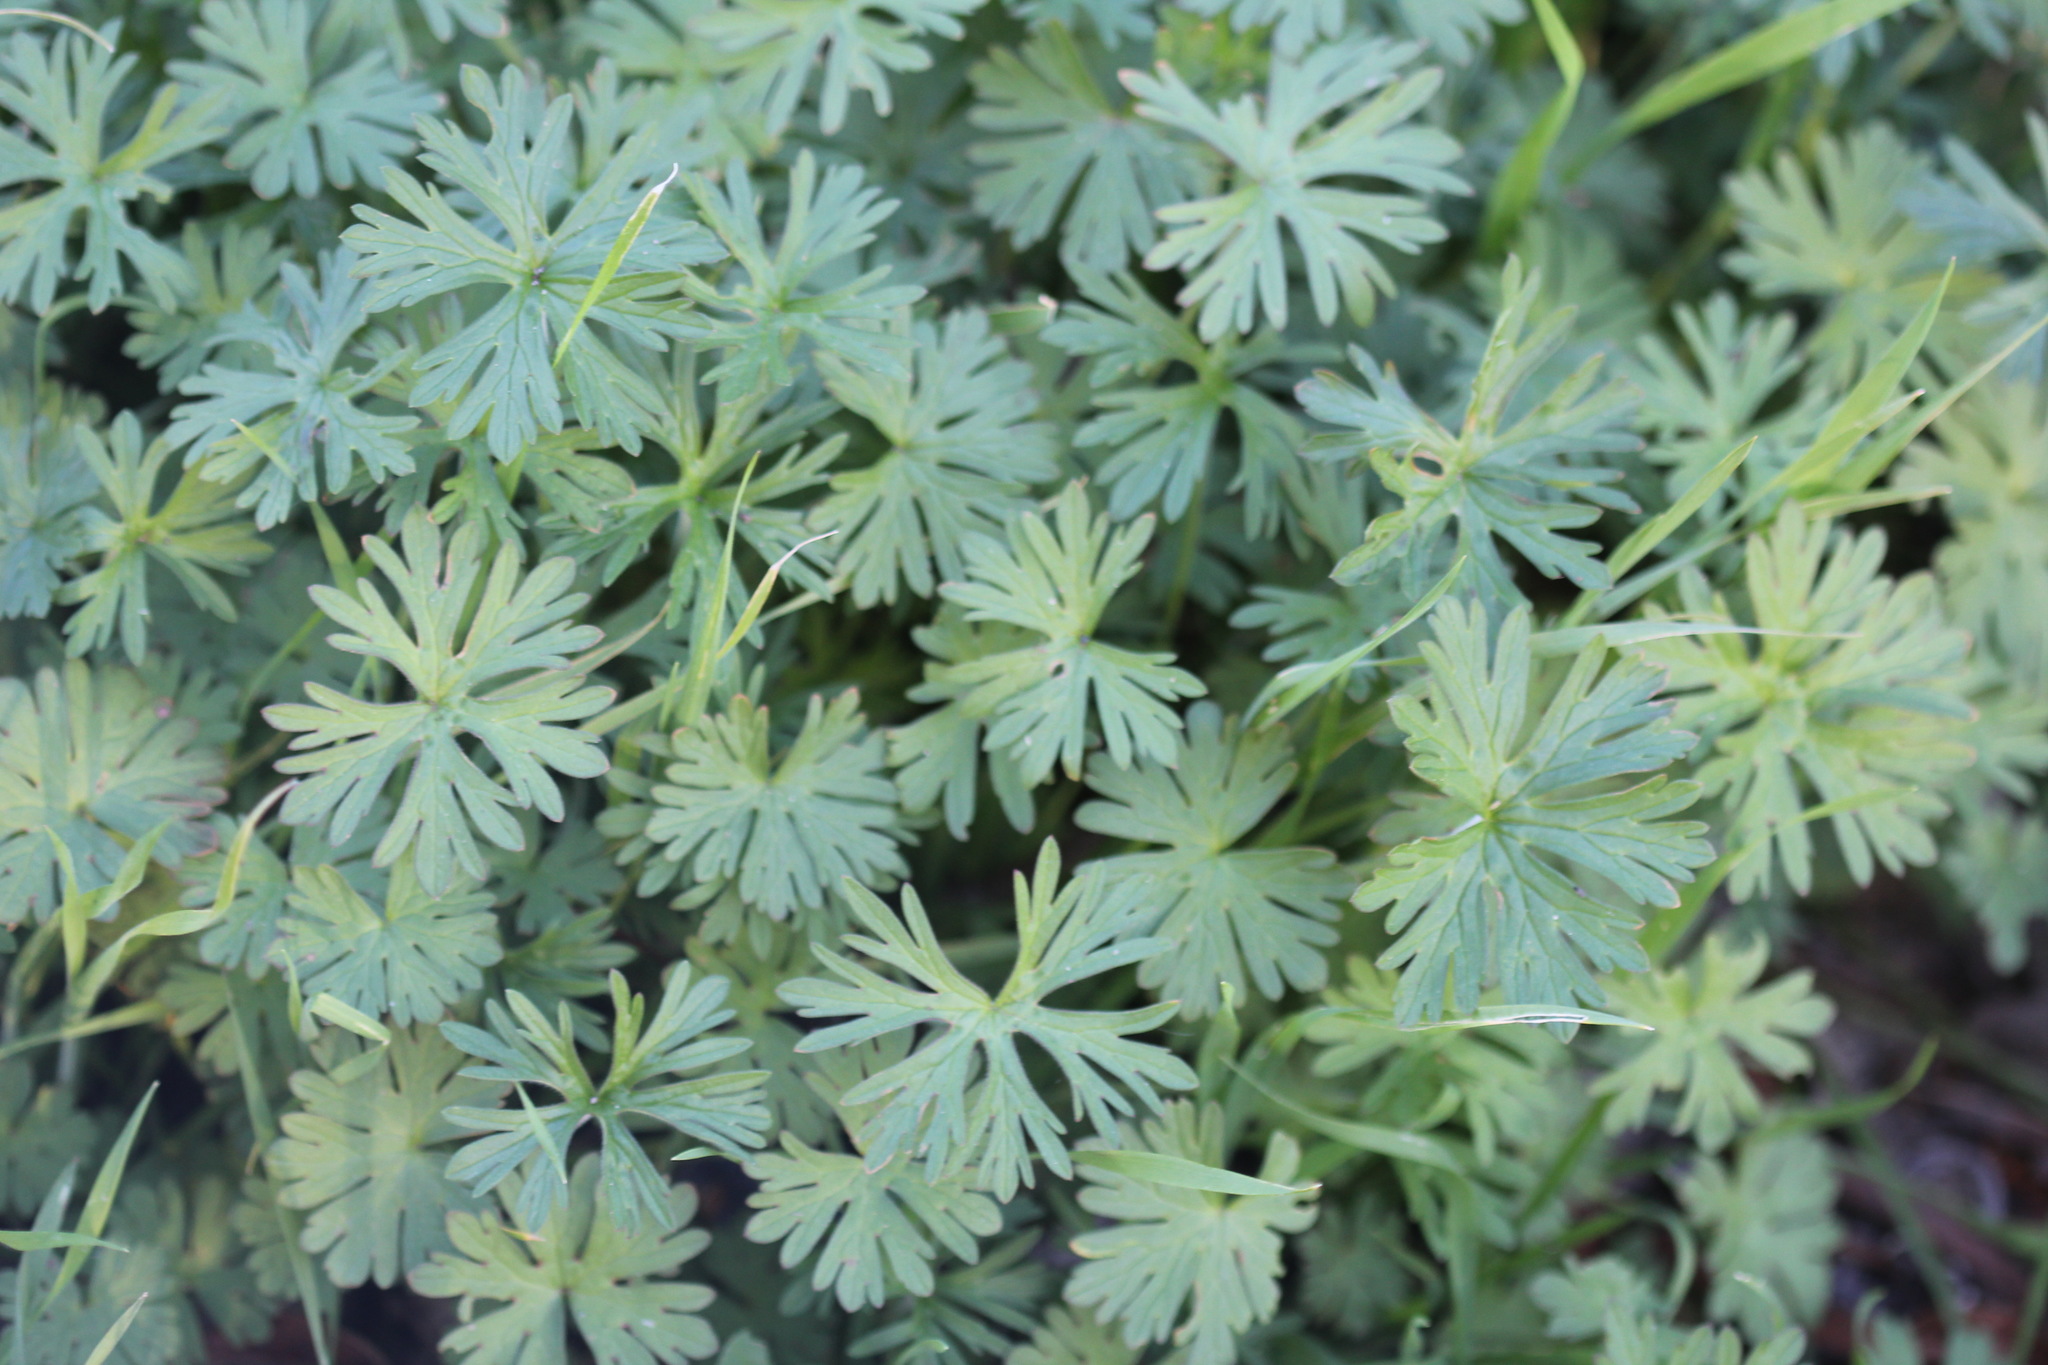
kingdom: Plantae
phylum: Tracheophyta
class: Magnoliopsida
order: Geraniales
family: Geraniaceae
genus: Geranium
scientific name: Geranium dissectum
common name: Cut-leaved crane's-bill
